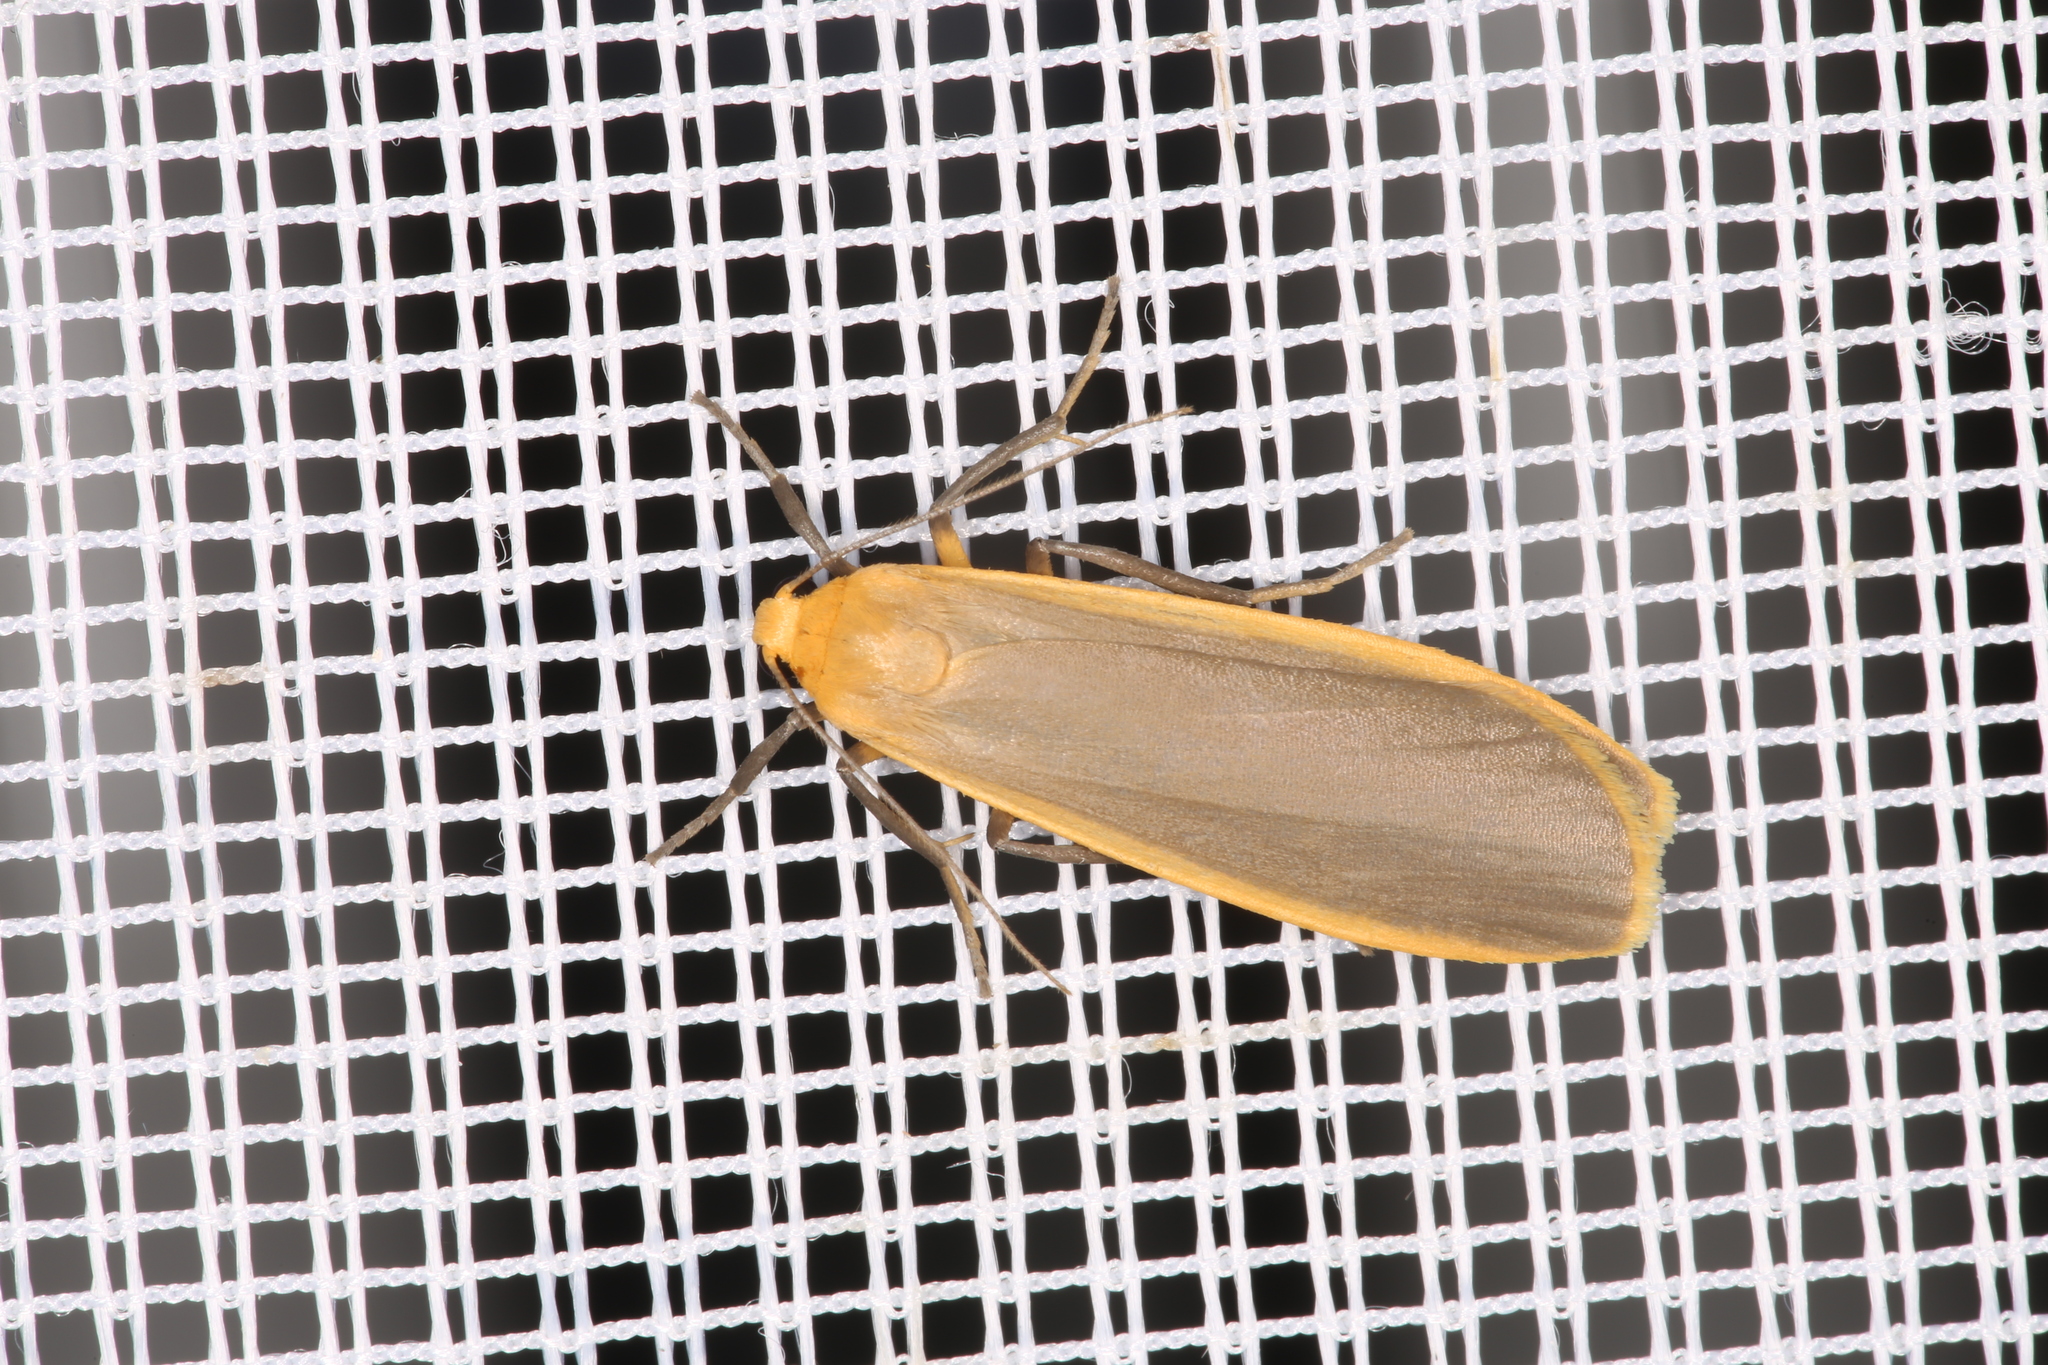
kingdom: Animalia
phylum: Arthropoda
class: Insecta
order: Lepidoptera
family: Erebidae
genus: Katha
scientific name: Katha depressa
